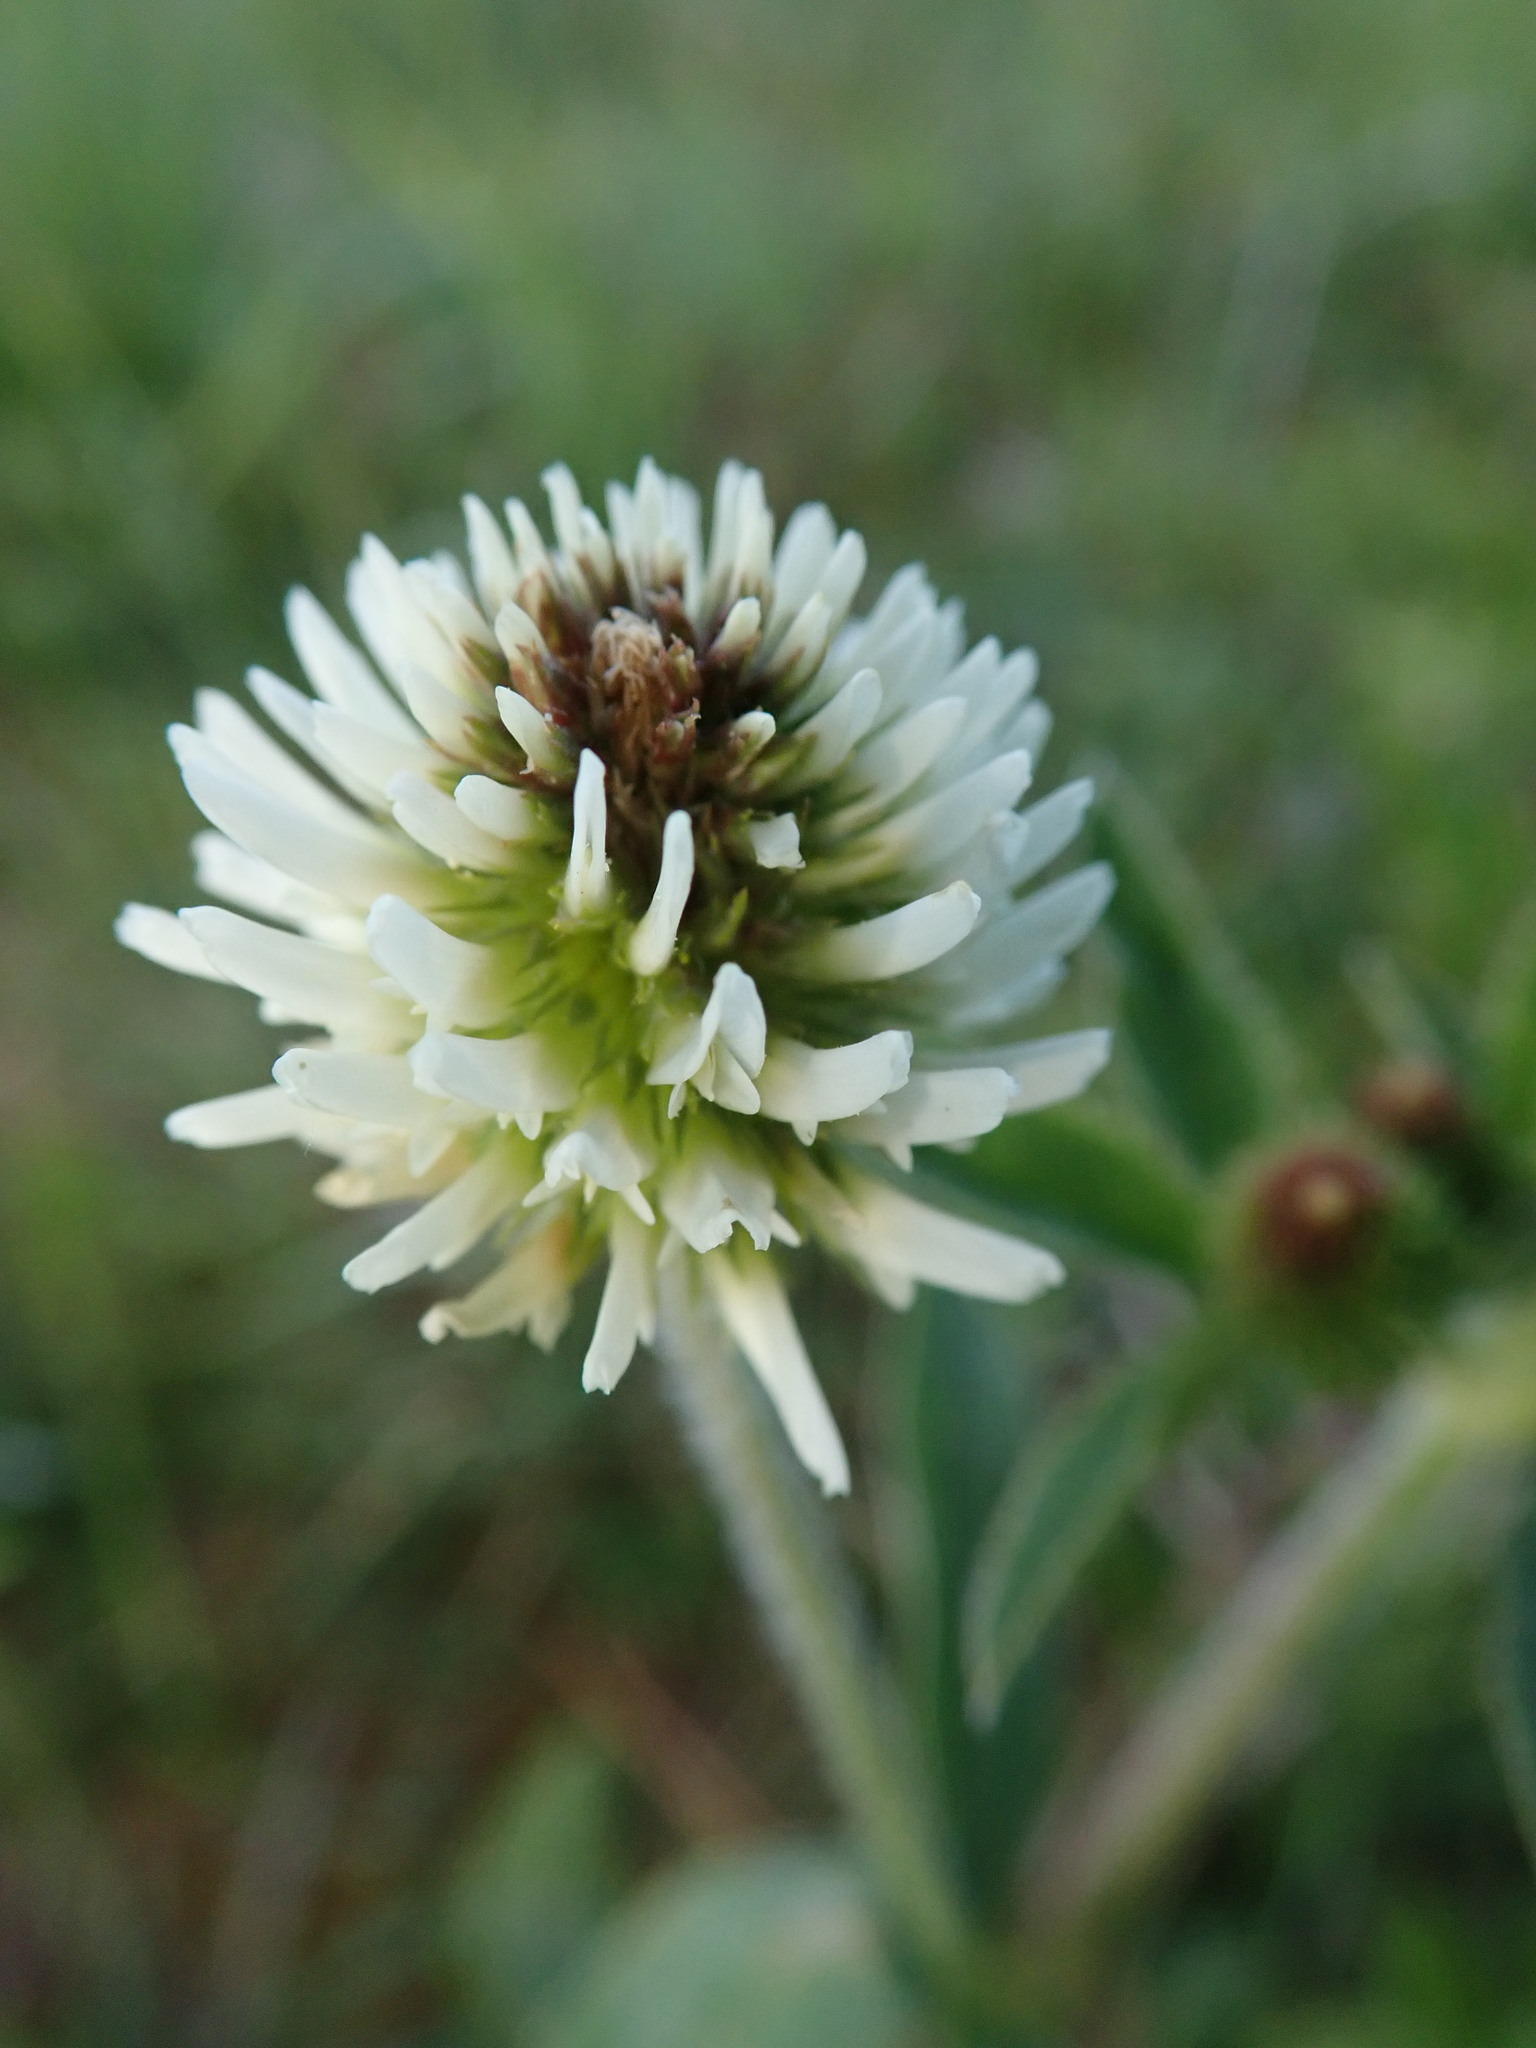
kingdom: Plantae
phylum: Tracheophyta
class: Magnoliopsida
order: Fabales
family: Fabaceae
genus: Trifolium
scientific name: Trifolium montanum
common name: Mountain clover
